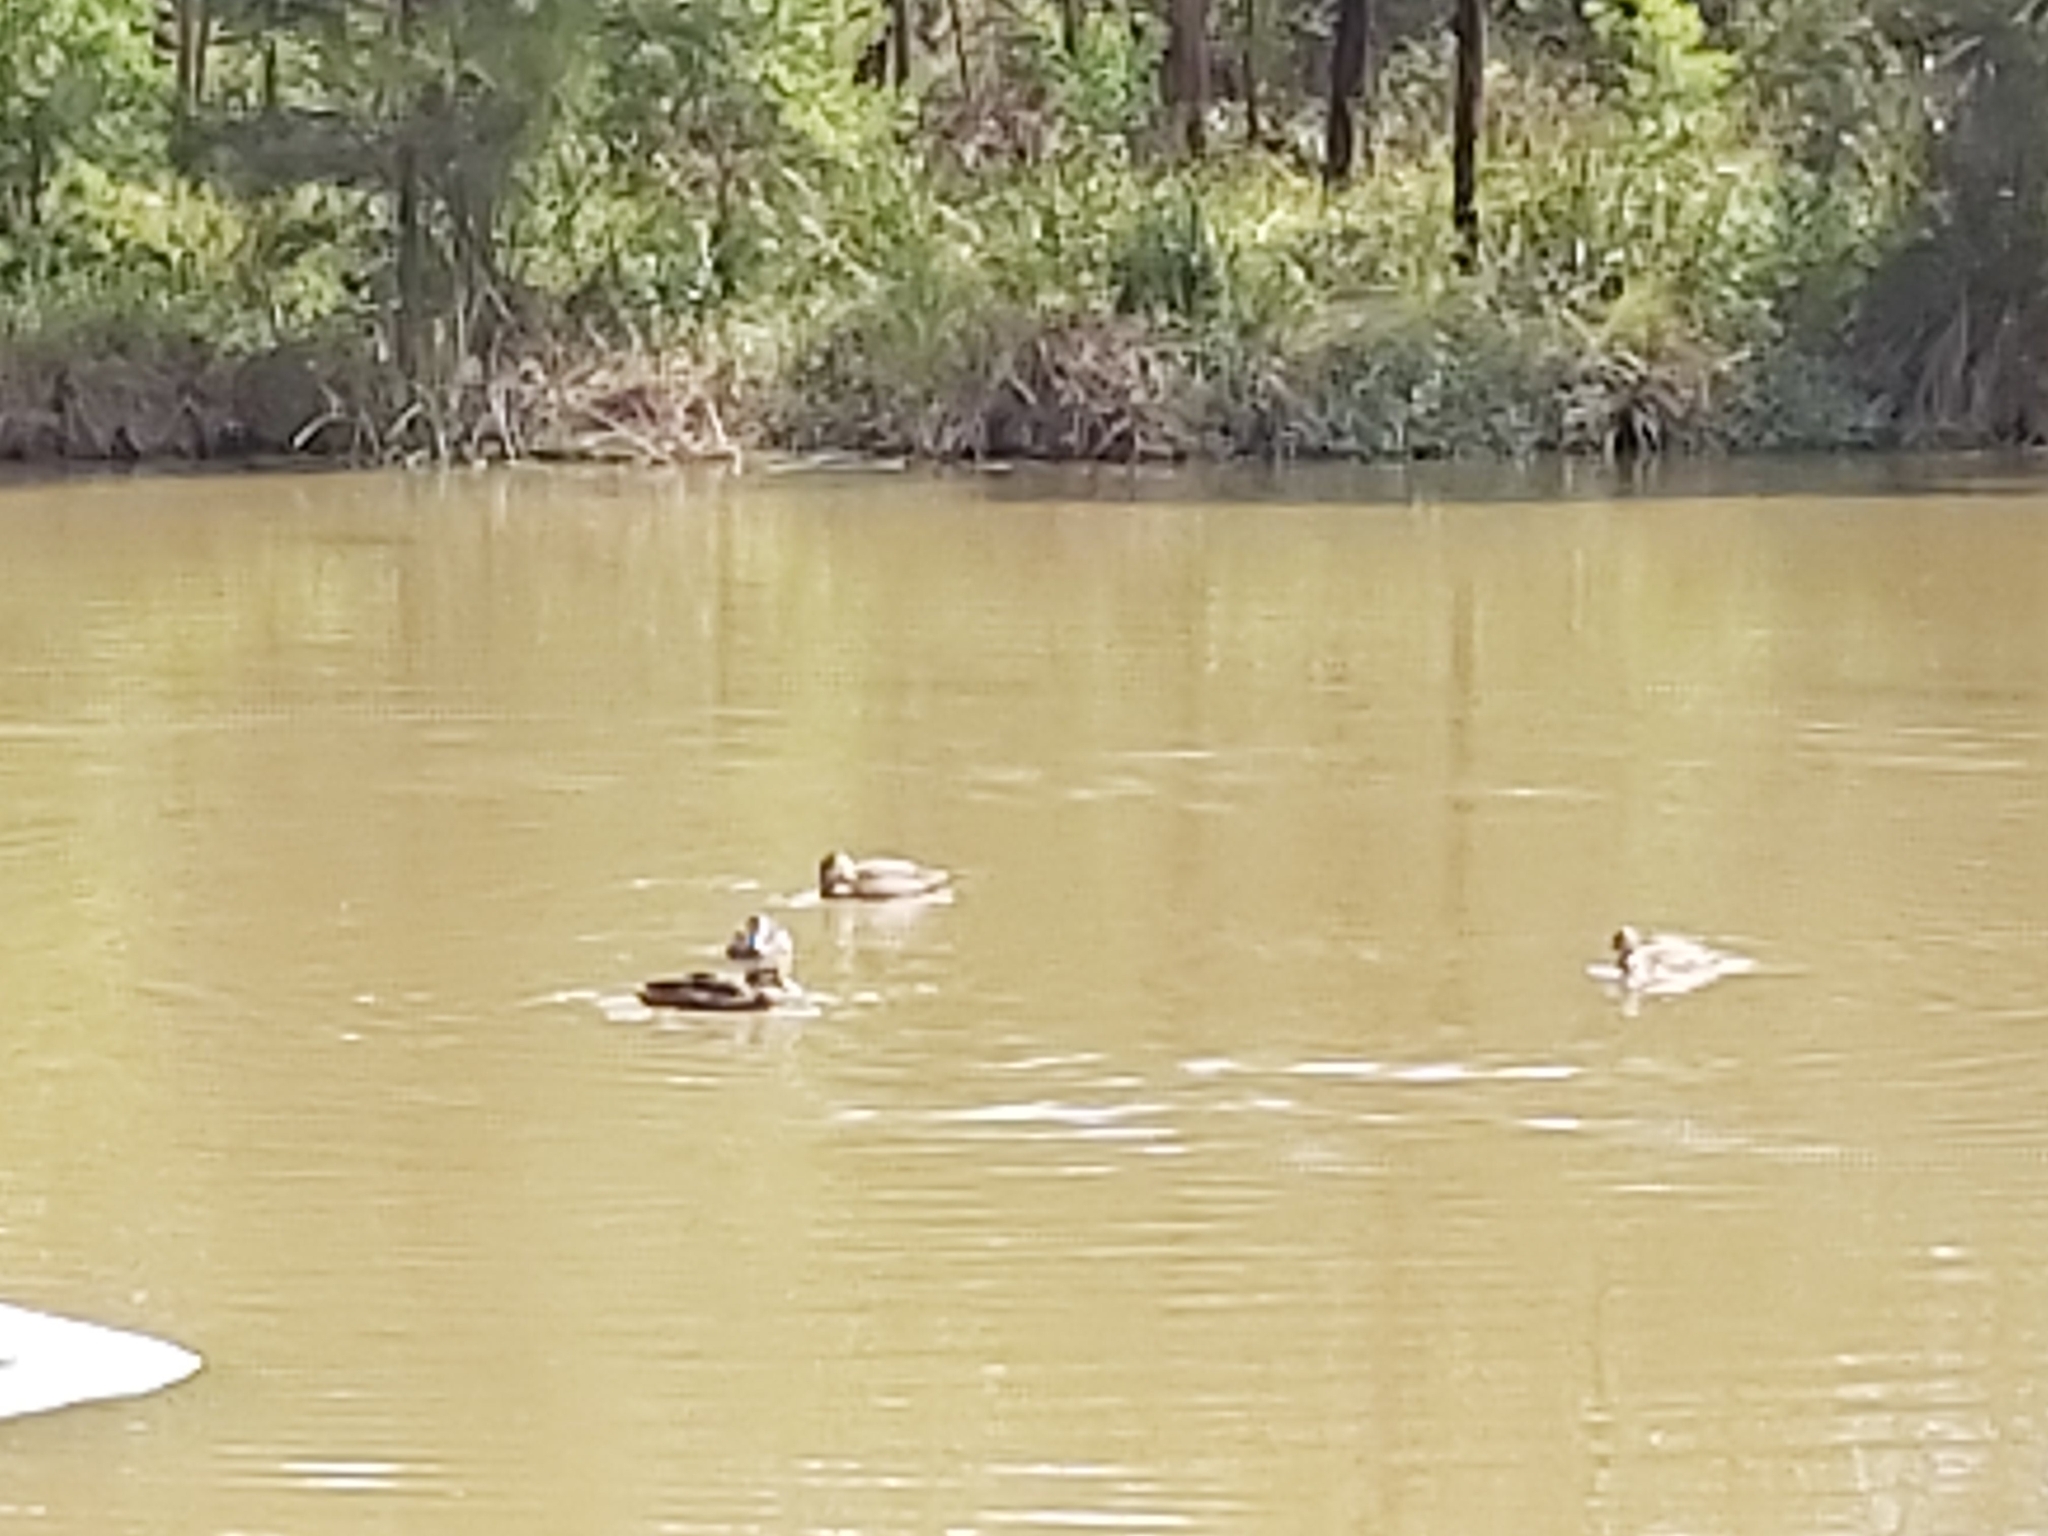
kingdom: Animalia
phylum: Chordata
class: Aves
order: Anseriformes
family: Anatidae
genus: Anas
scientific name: Anas superciliosa
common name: Pacific black duck
